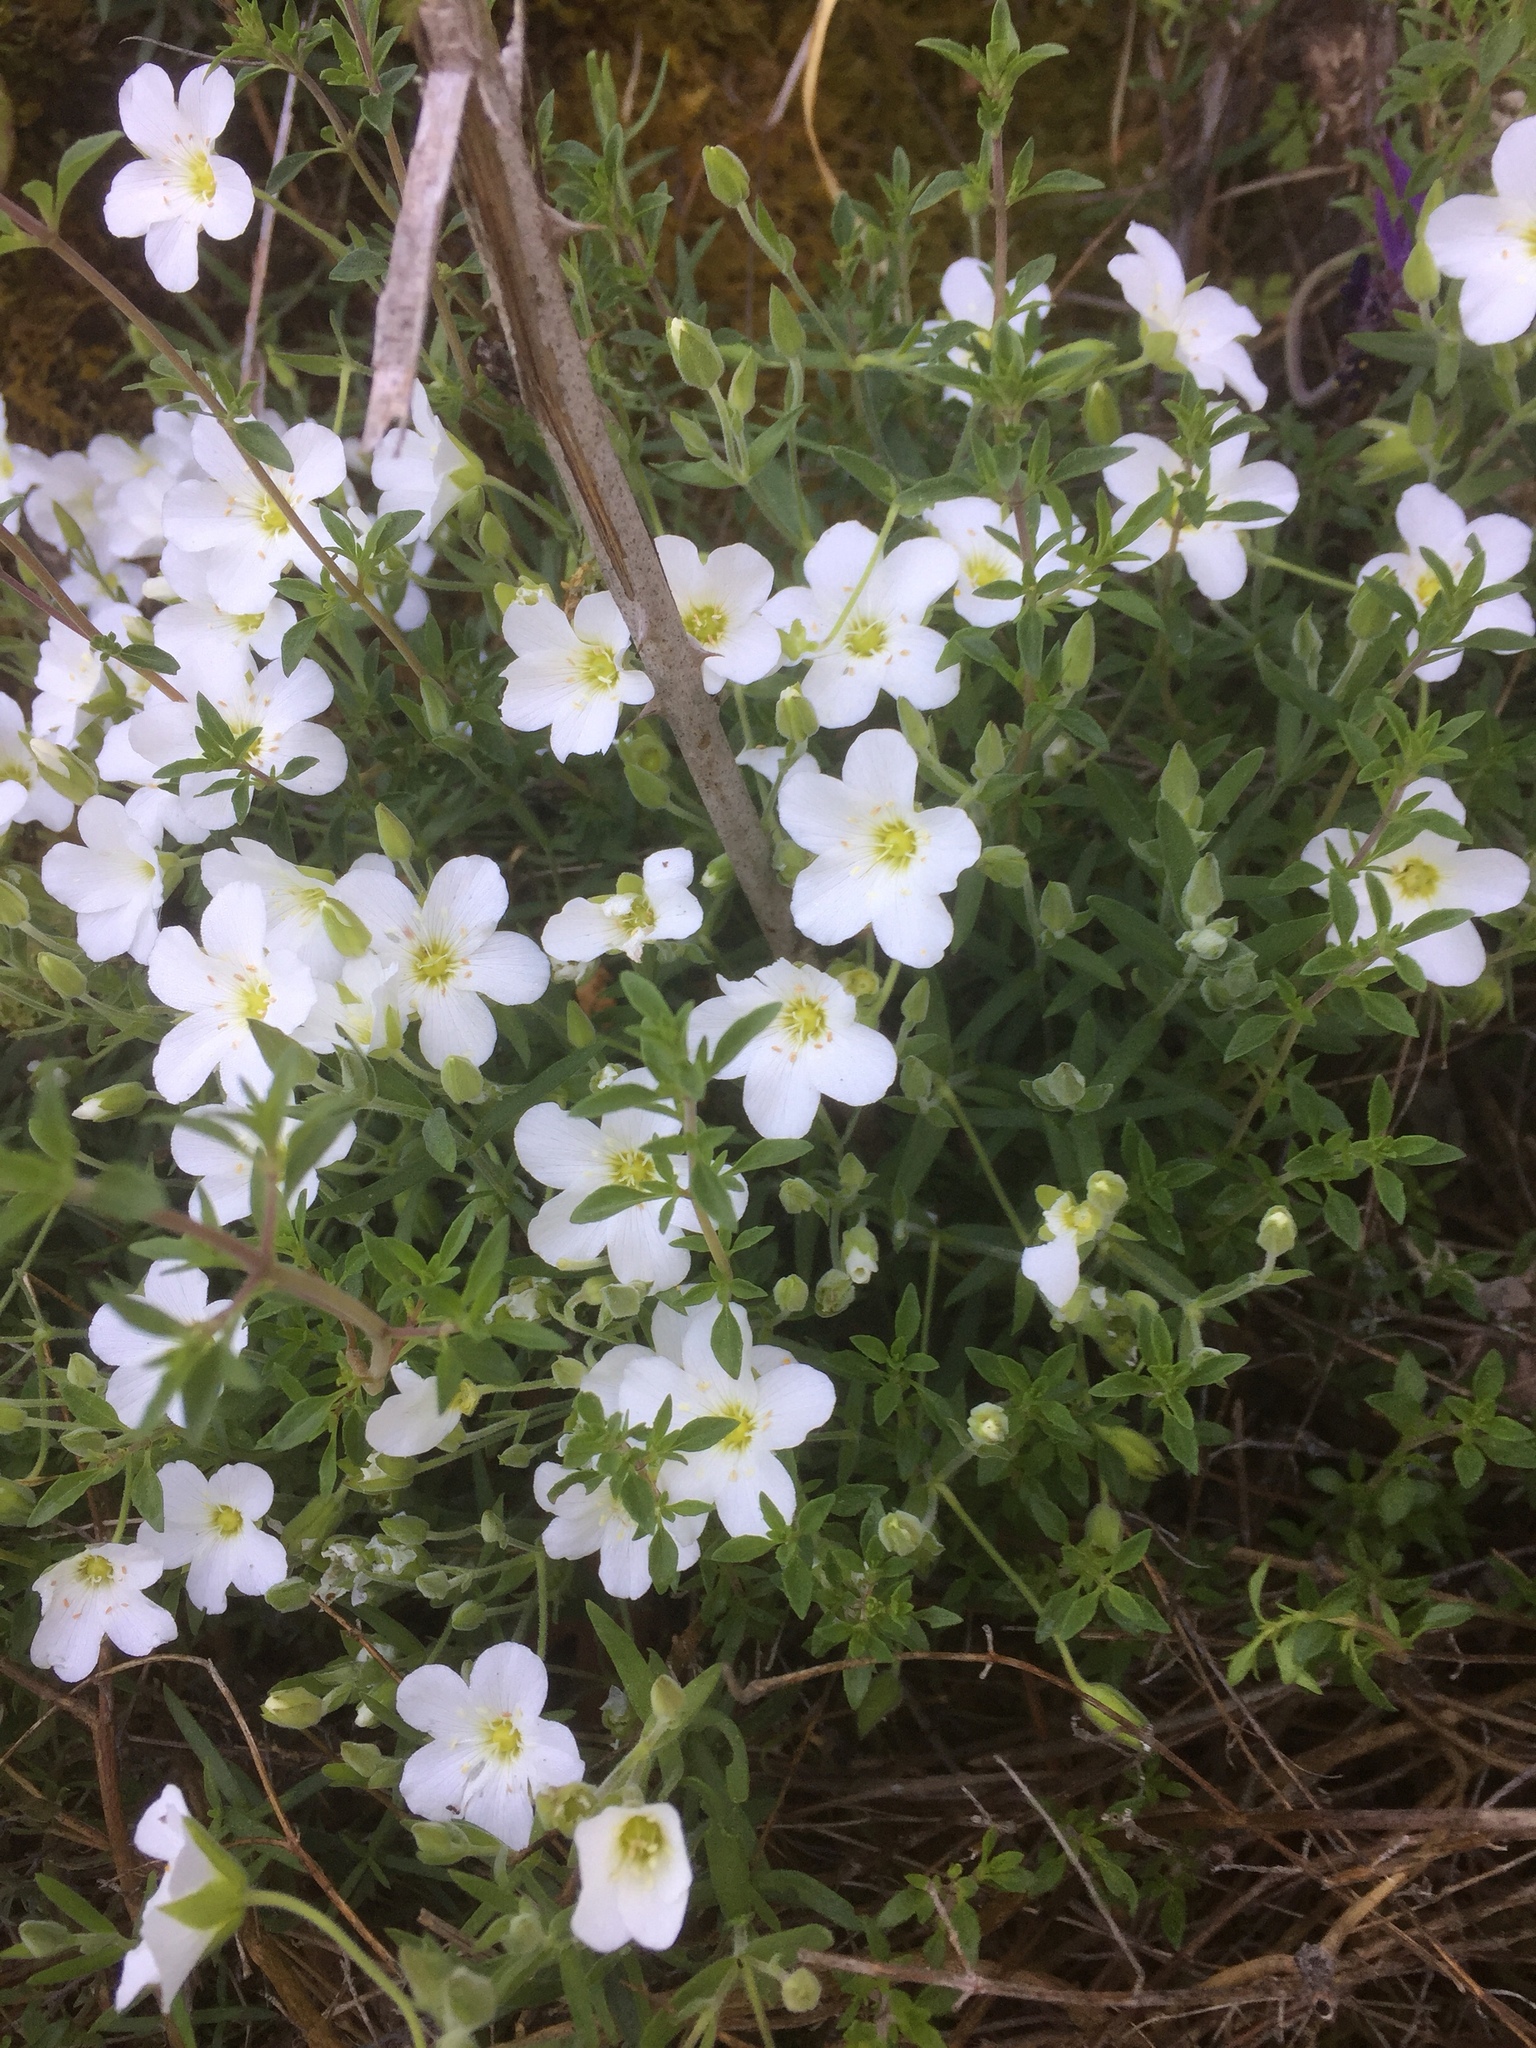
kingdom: Plantae
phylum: Tracheophyta
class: Magnoliopsida
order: Caryophyllales
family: Caryophyllaceae
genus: Arenaria
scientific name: Arenaria montana
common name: Mountain sandwort
